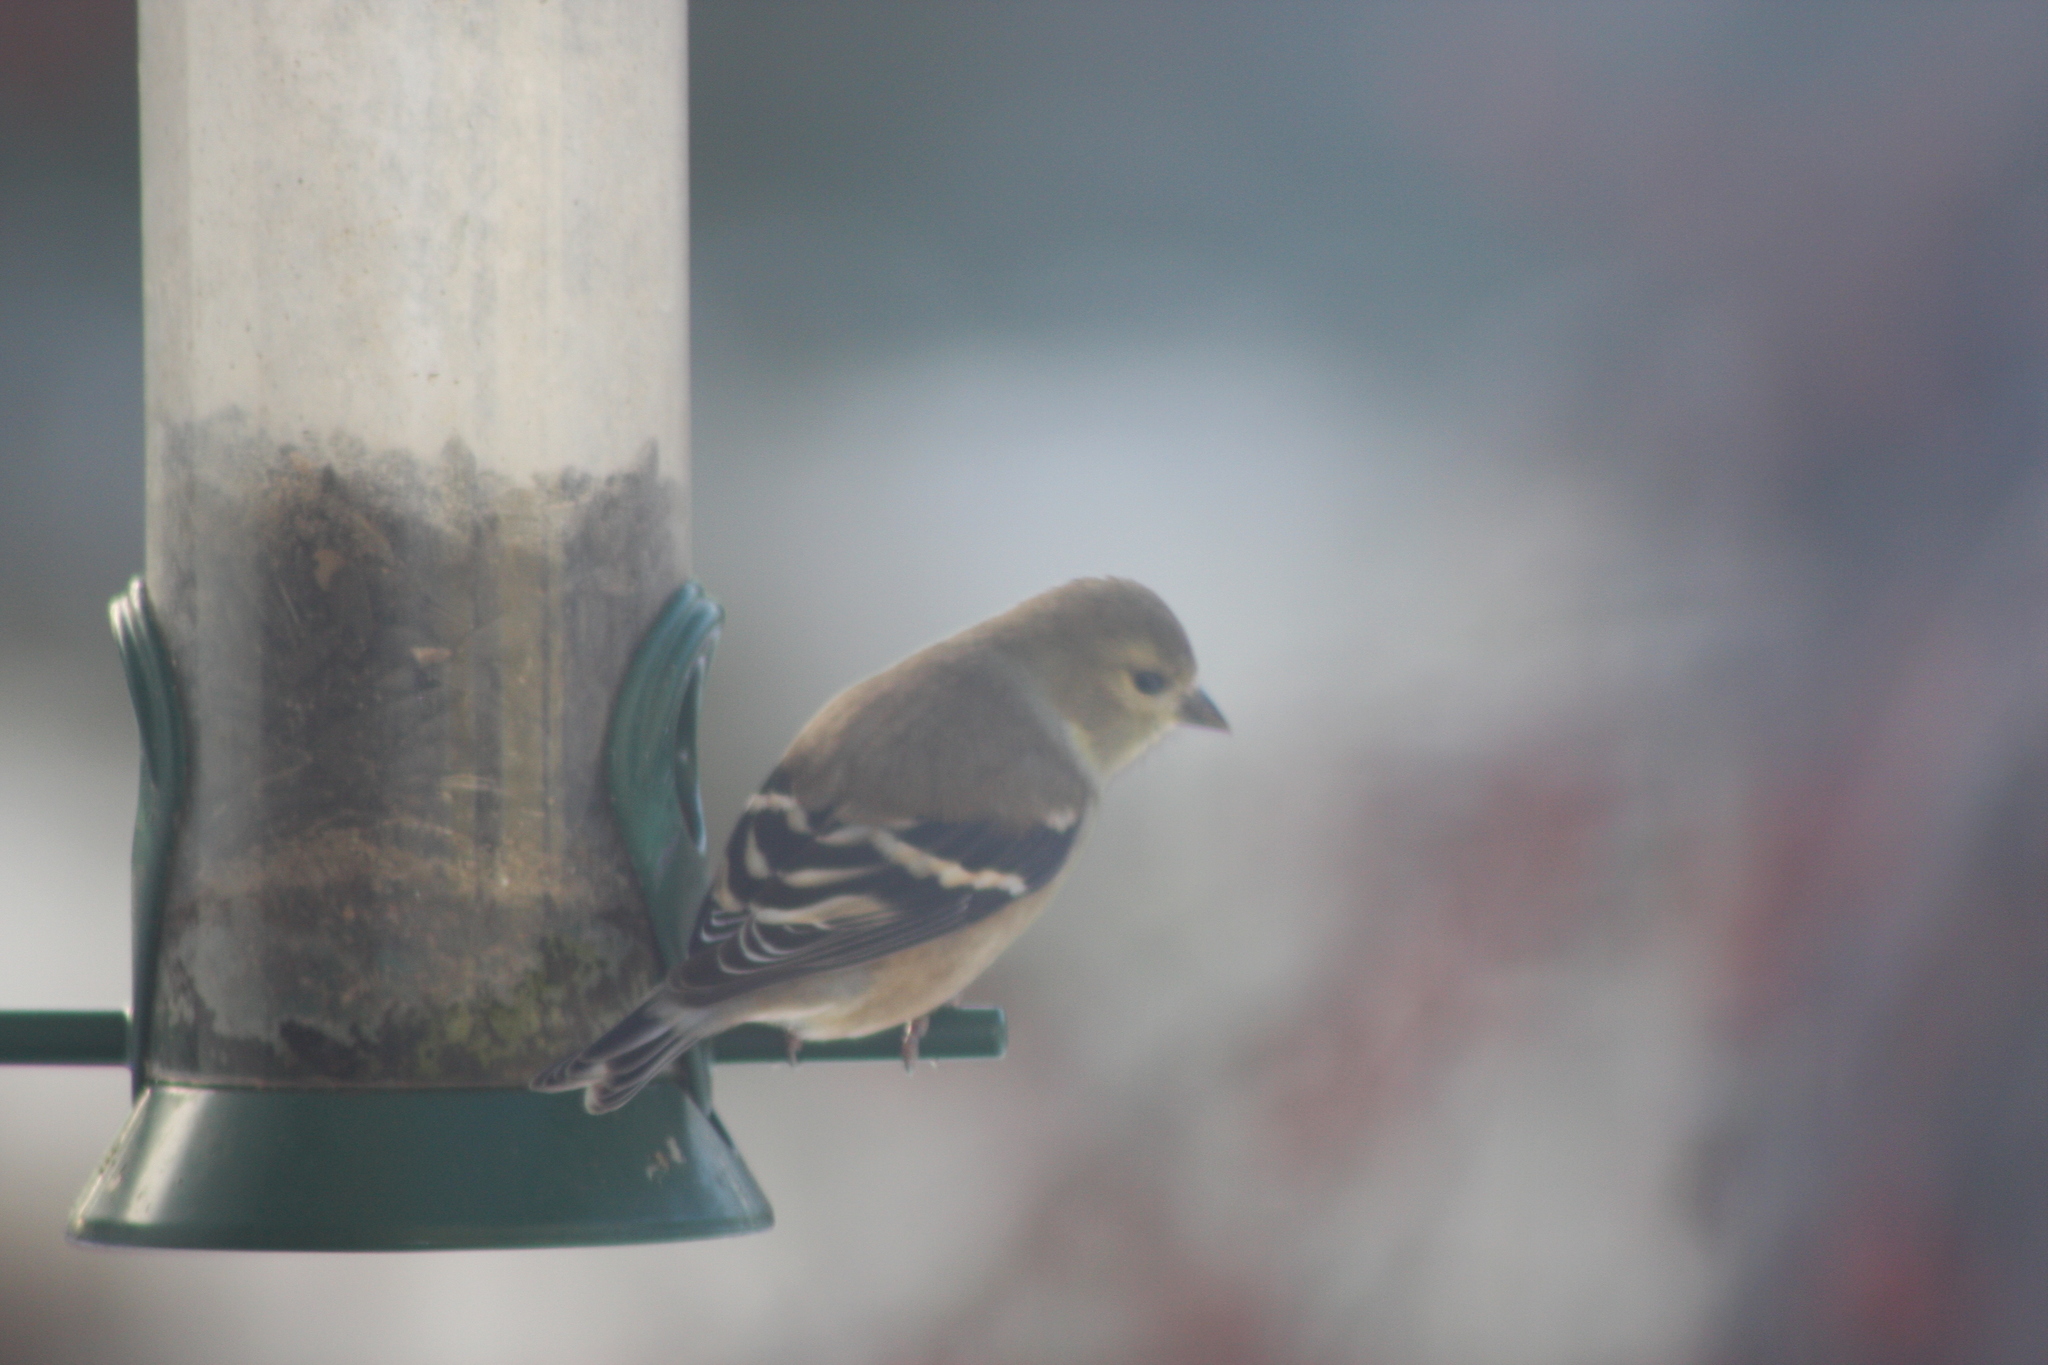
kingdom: Animalia
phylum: Chordata
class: Aves
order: Passeriformes
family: Fringillidae
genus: Spinus
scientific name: Spinus tristis
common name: American goldfinch
